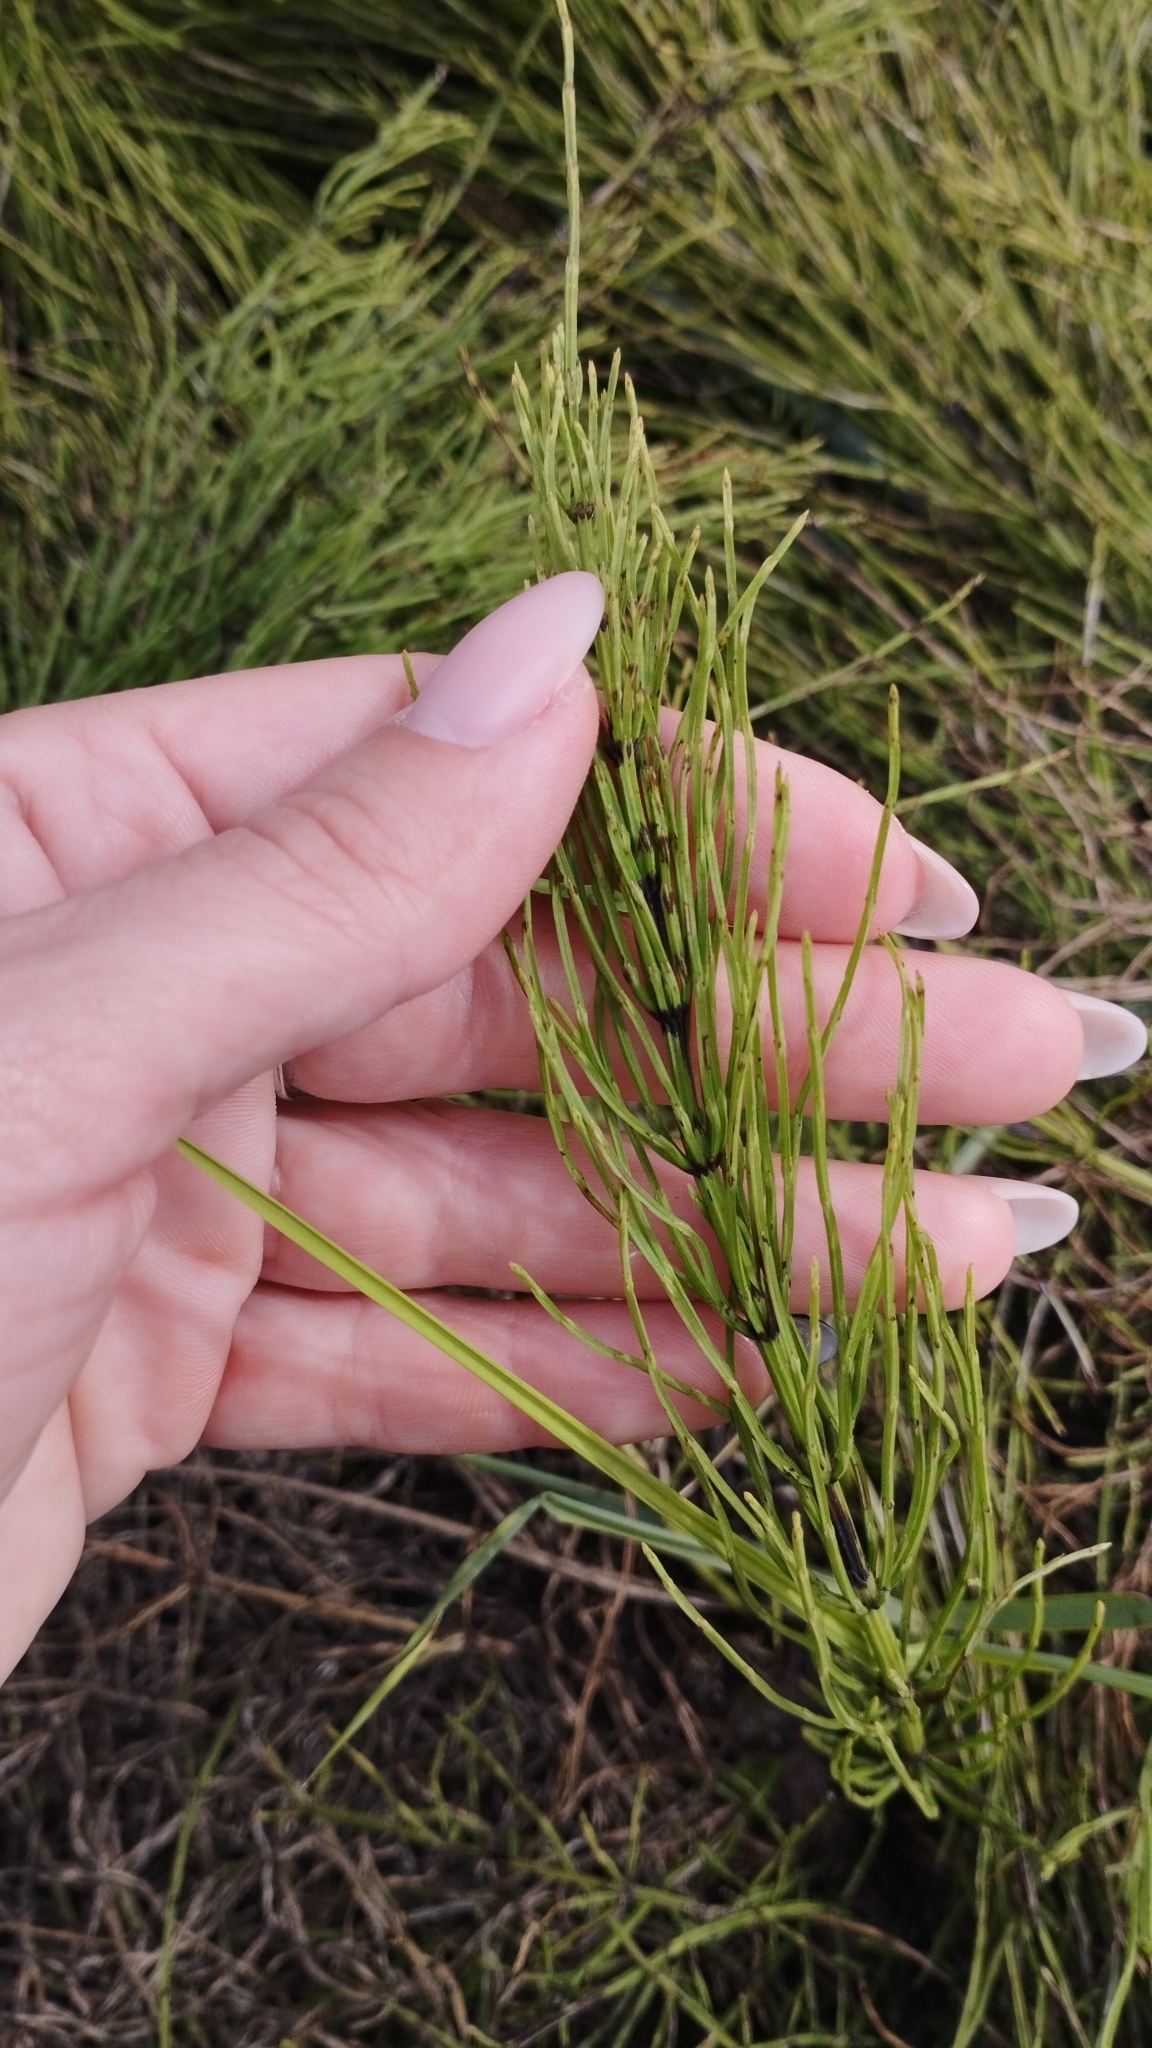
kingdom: Plantae
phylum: Tracheophyta
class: Polypodiopsida
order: Equisetales
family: Equisetaceae
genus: Equisetum
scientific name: Equisetum arvense
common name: Field horsetail
